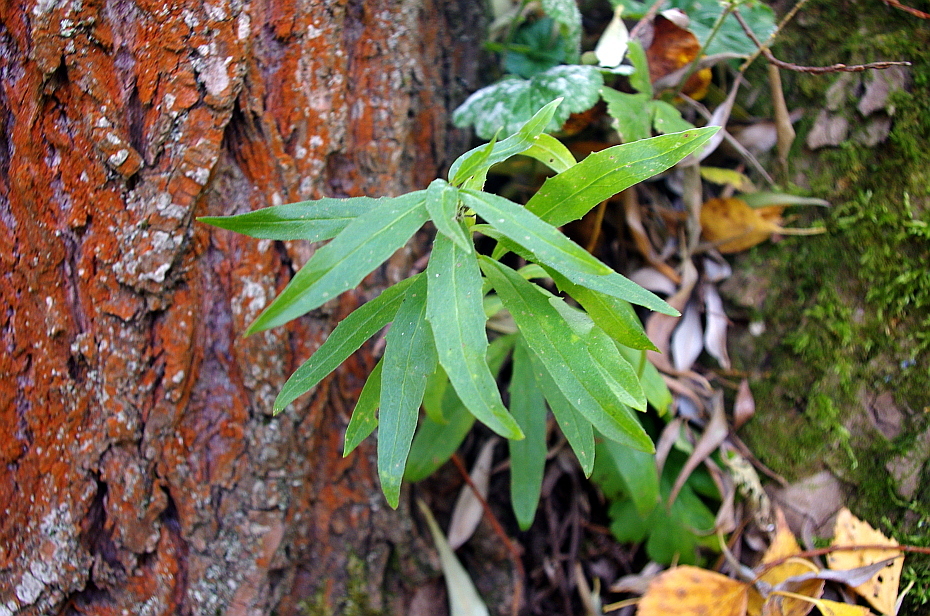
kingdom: Plantae
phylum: Tracheophyta
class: Magnoliopsida
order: Asterales
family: Asteraceae
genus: Hieracium
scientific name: Hieracium umbellatum
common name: Northern hawkweed
